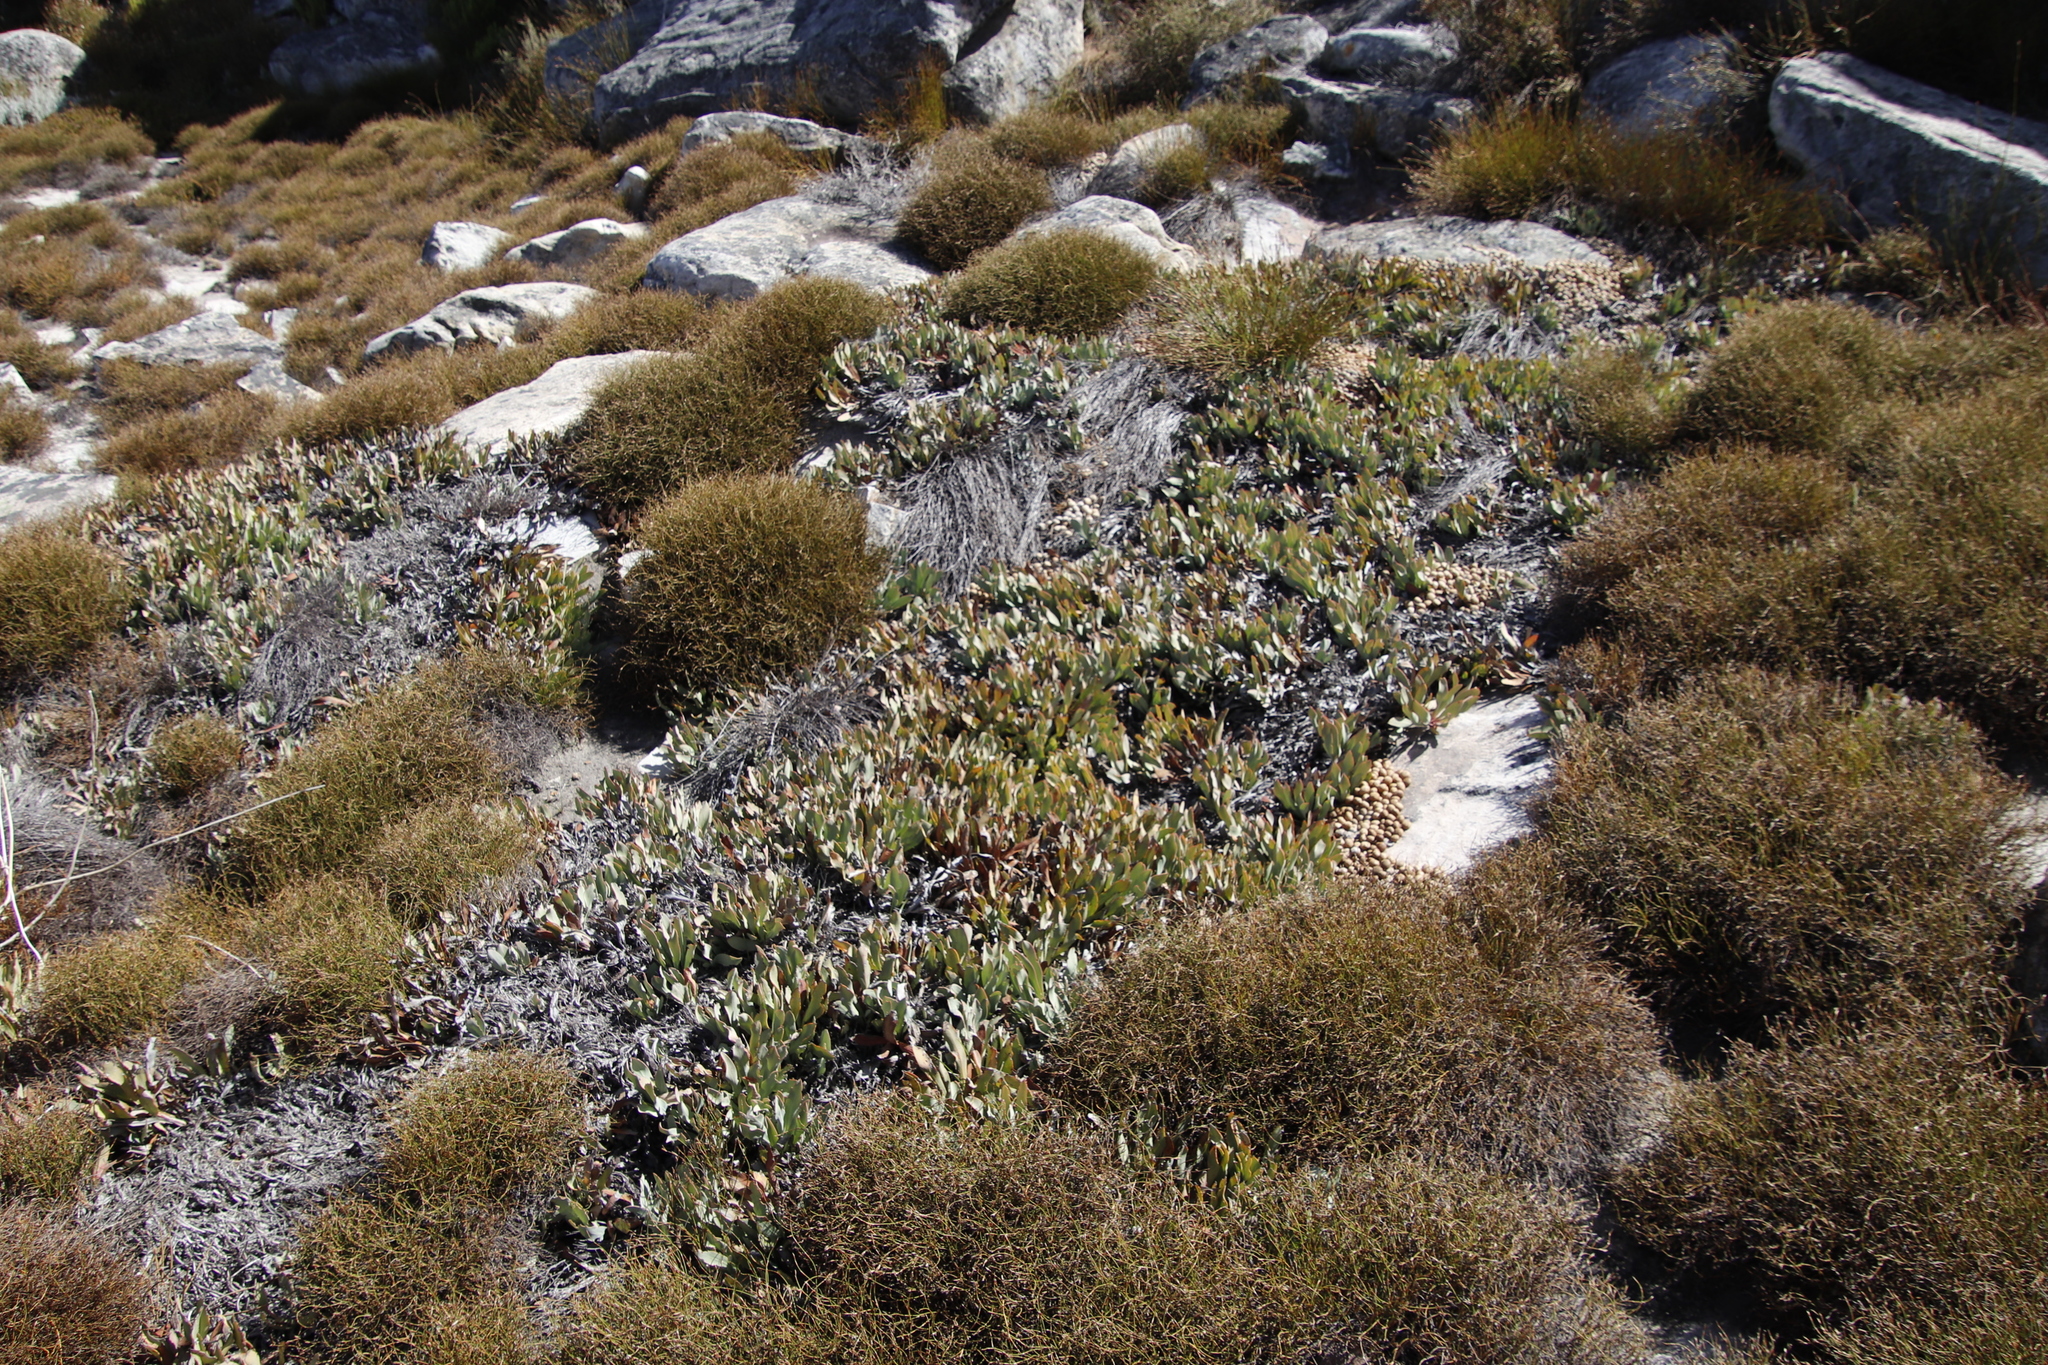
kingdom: Plantae
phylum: Tracheophyta
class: Magnoliopsida
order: Proteales
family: Proteaceae
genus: Protea
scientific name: Protea laevis
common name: Smooth-leaf sugarbush
